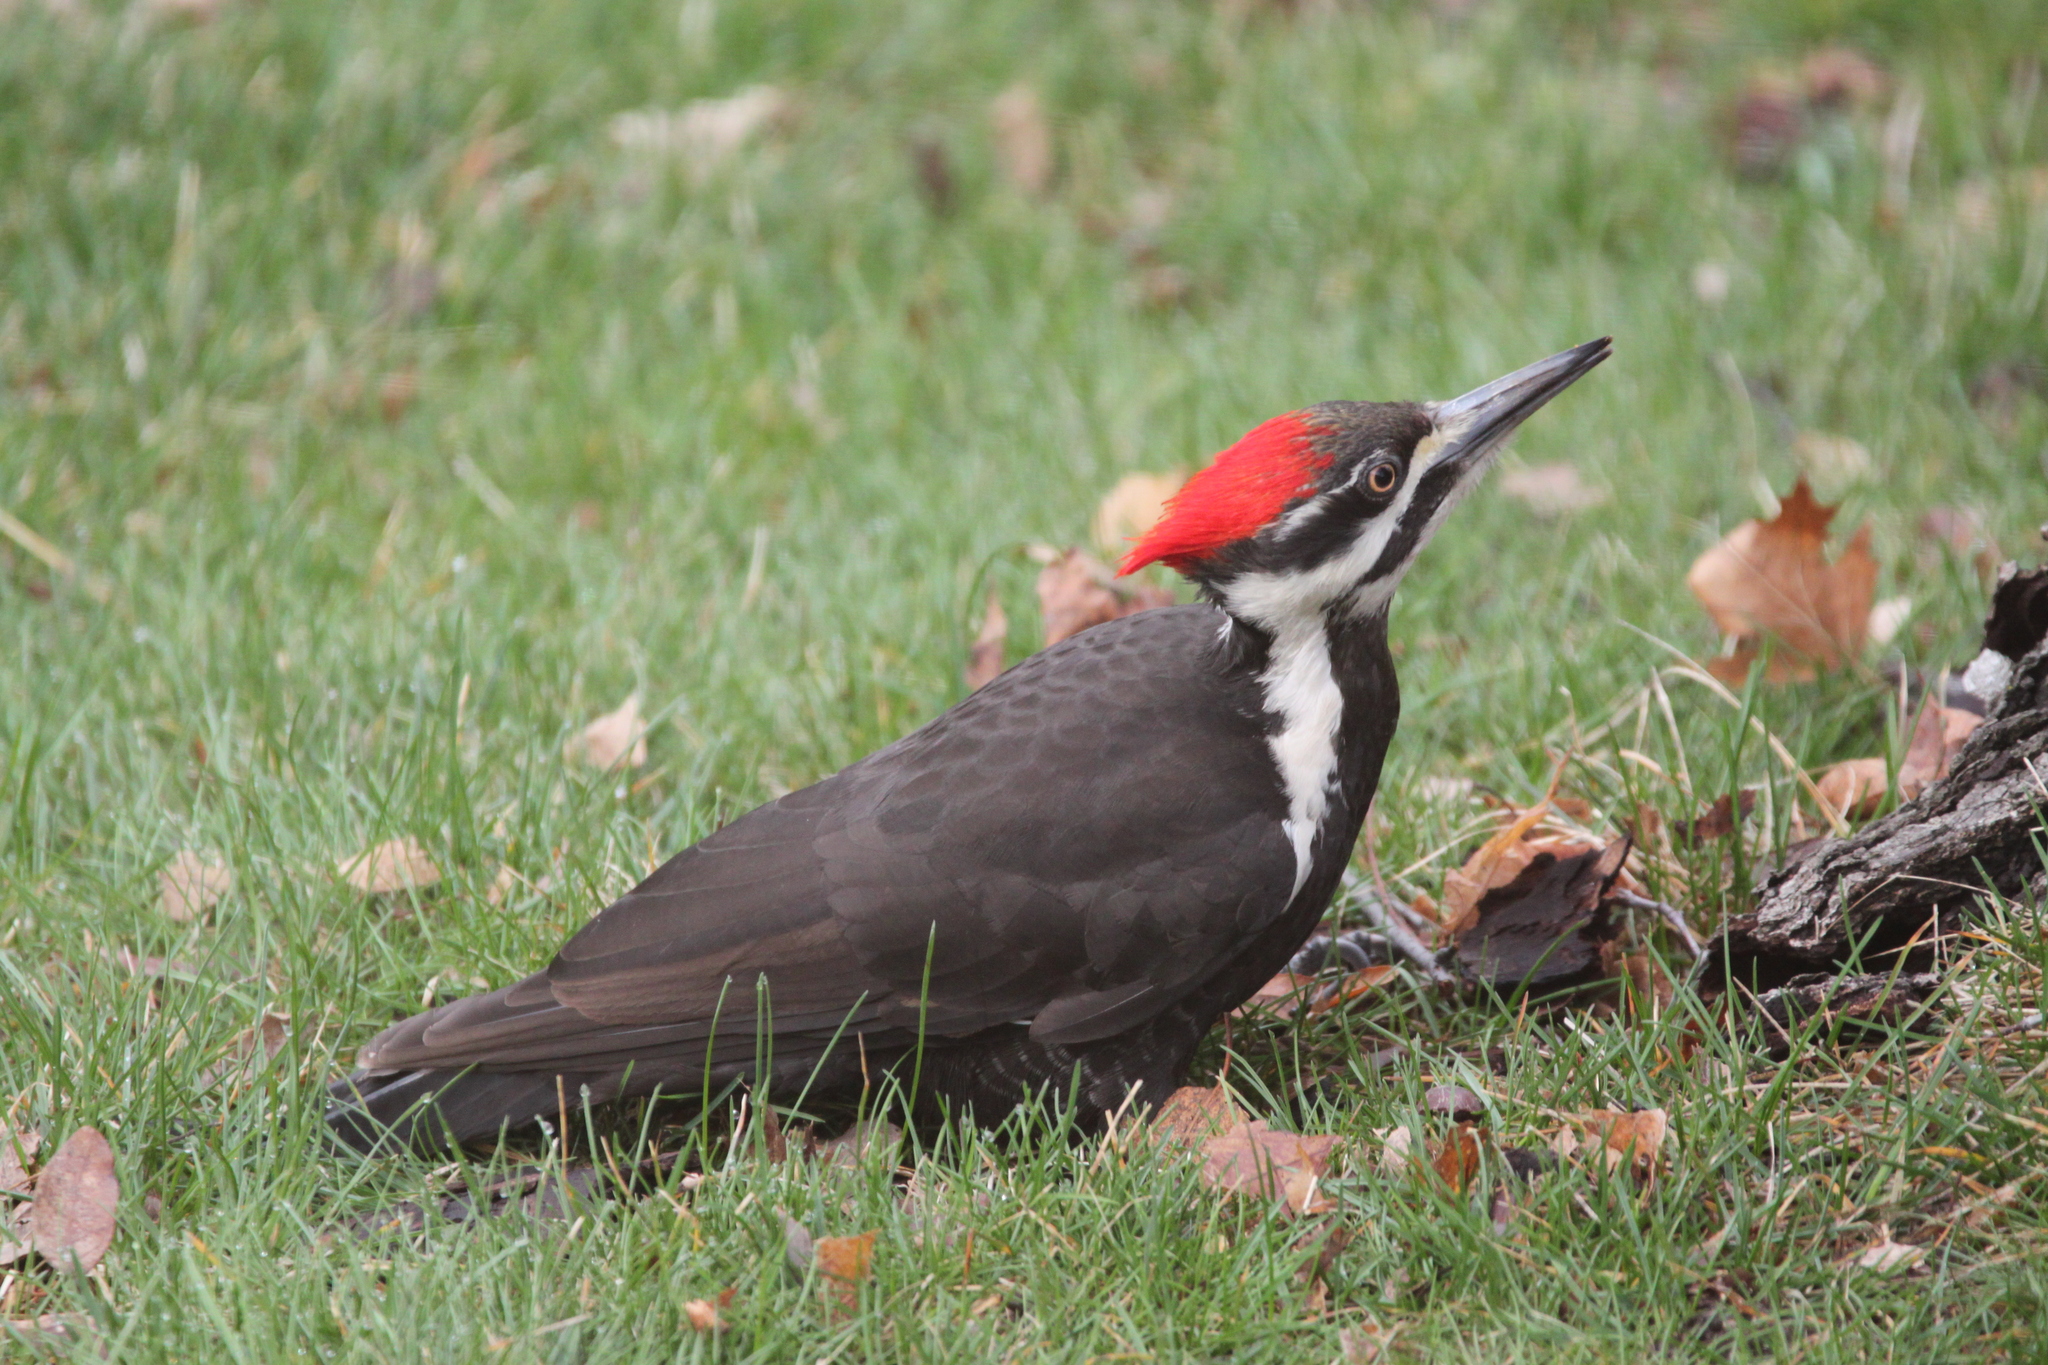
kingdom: Animalia
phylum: Chordata
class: Aves
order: Piciformes
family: Picidae
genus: Dryocopus
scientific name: Dryocopus pileatus
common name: Pileated woodpecker
